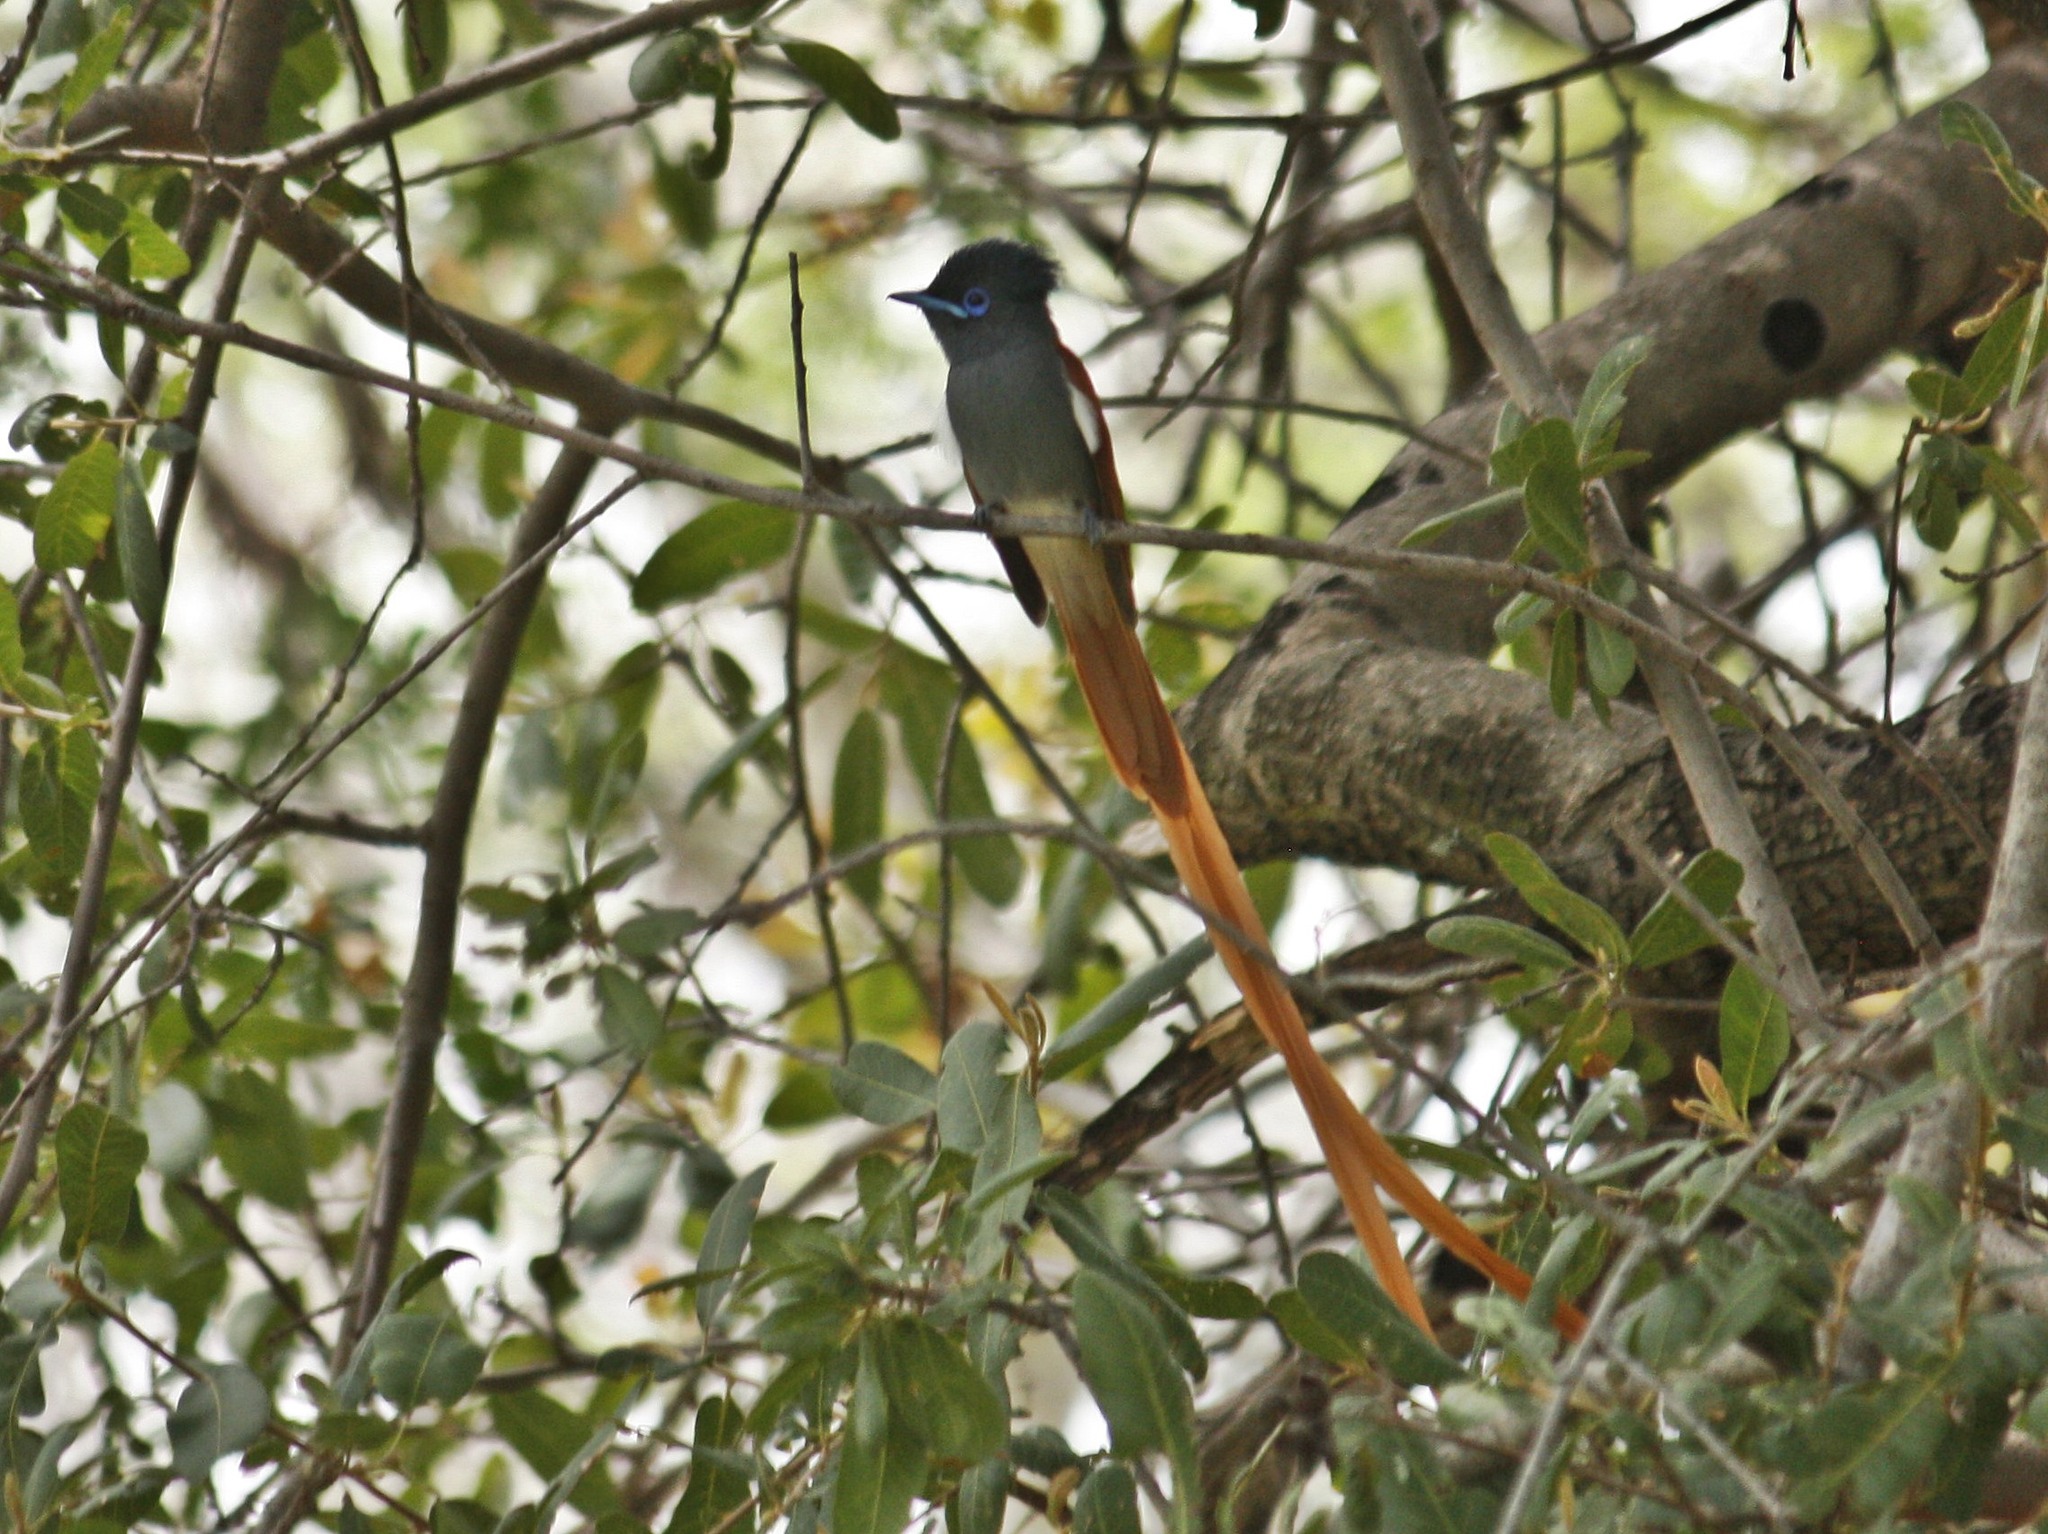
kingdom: Animalia
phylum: Chordata
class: Aves
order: Passeriformes
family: Monarchidae
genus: Terpsiphone
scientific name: Terpsiphone viridis
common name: African paradise flycatcher
